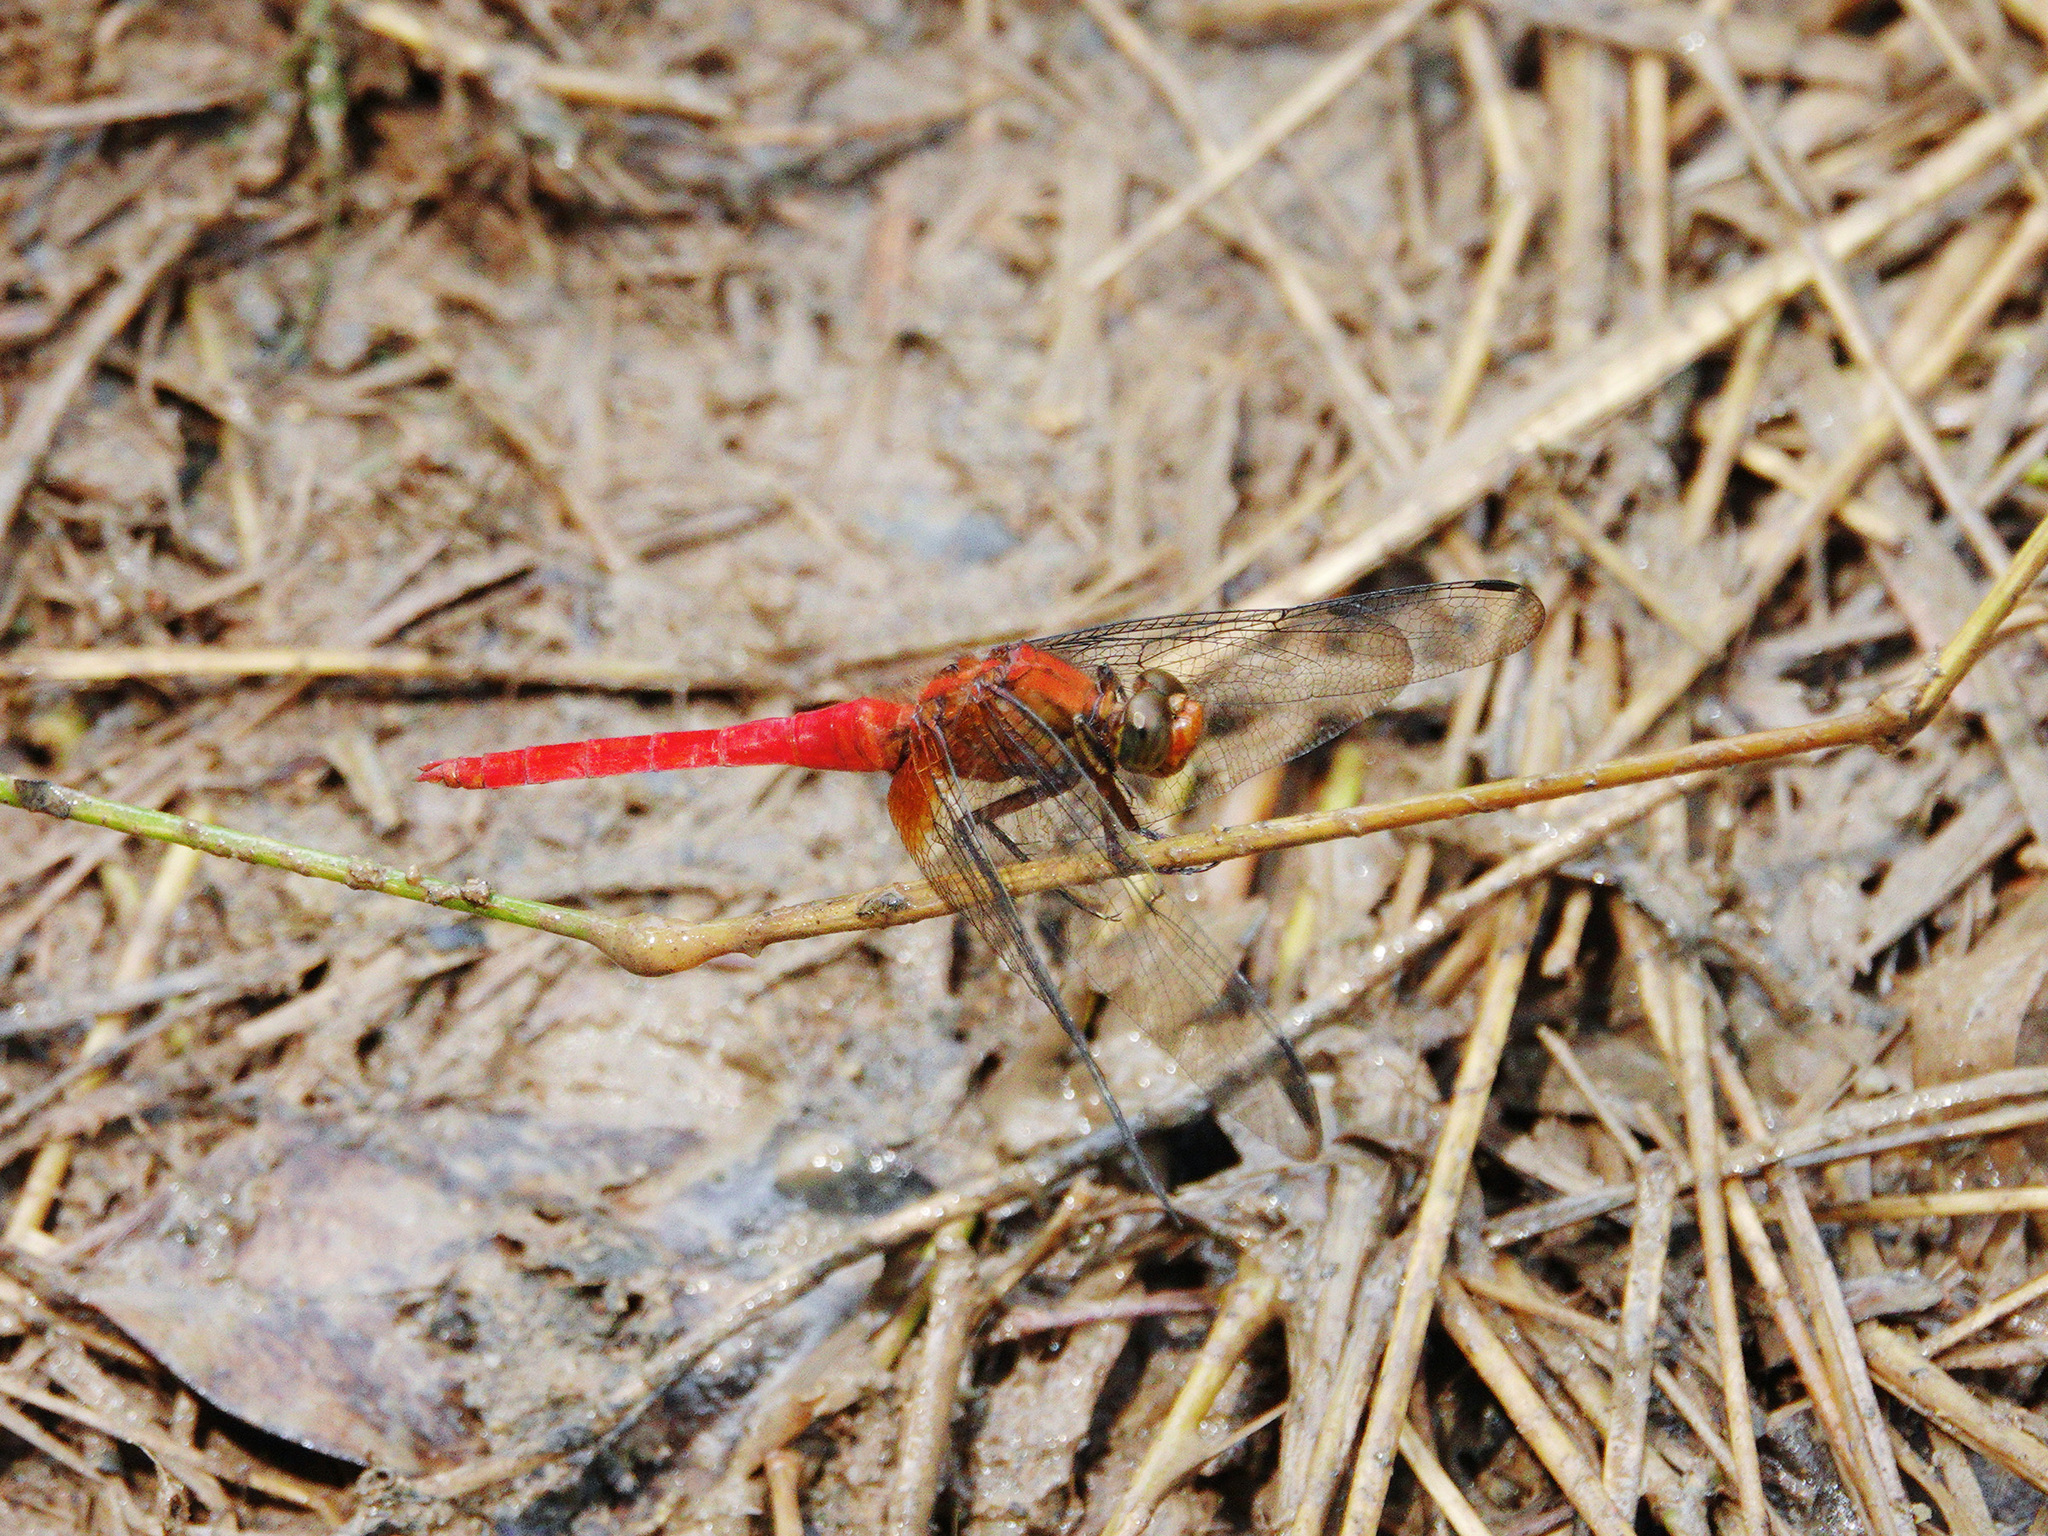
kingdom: Animalia
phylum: Arthropoda
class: Insecta
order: Odonata
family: Libellulidae
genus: Orthetrum
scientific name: Orthetrum testaceum
